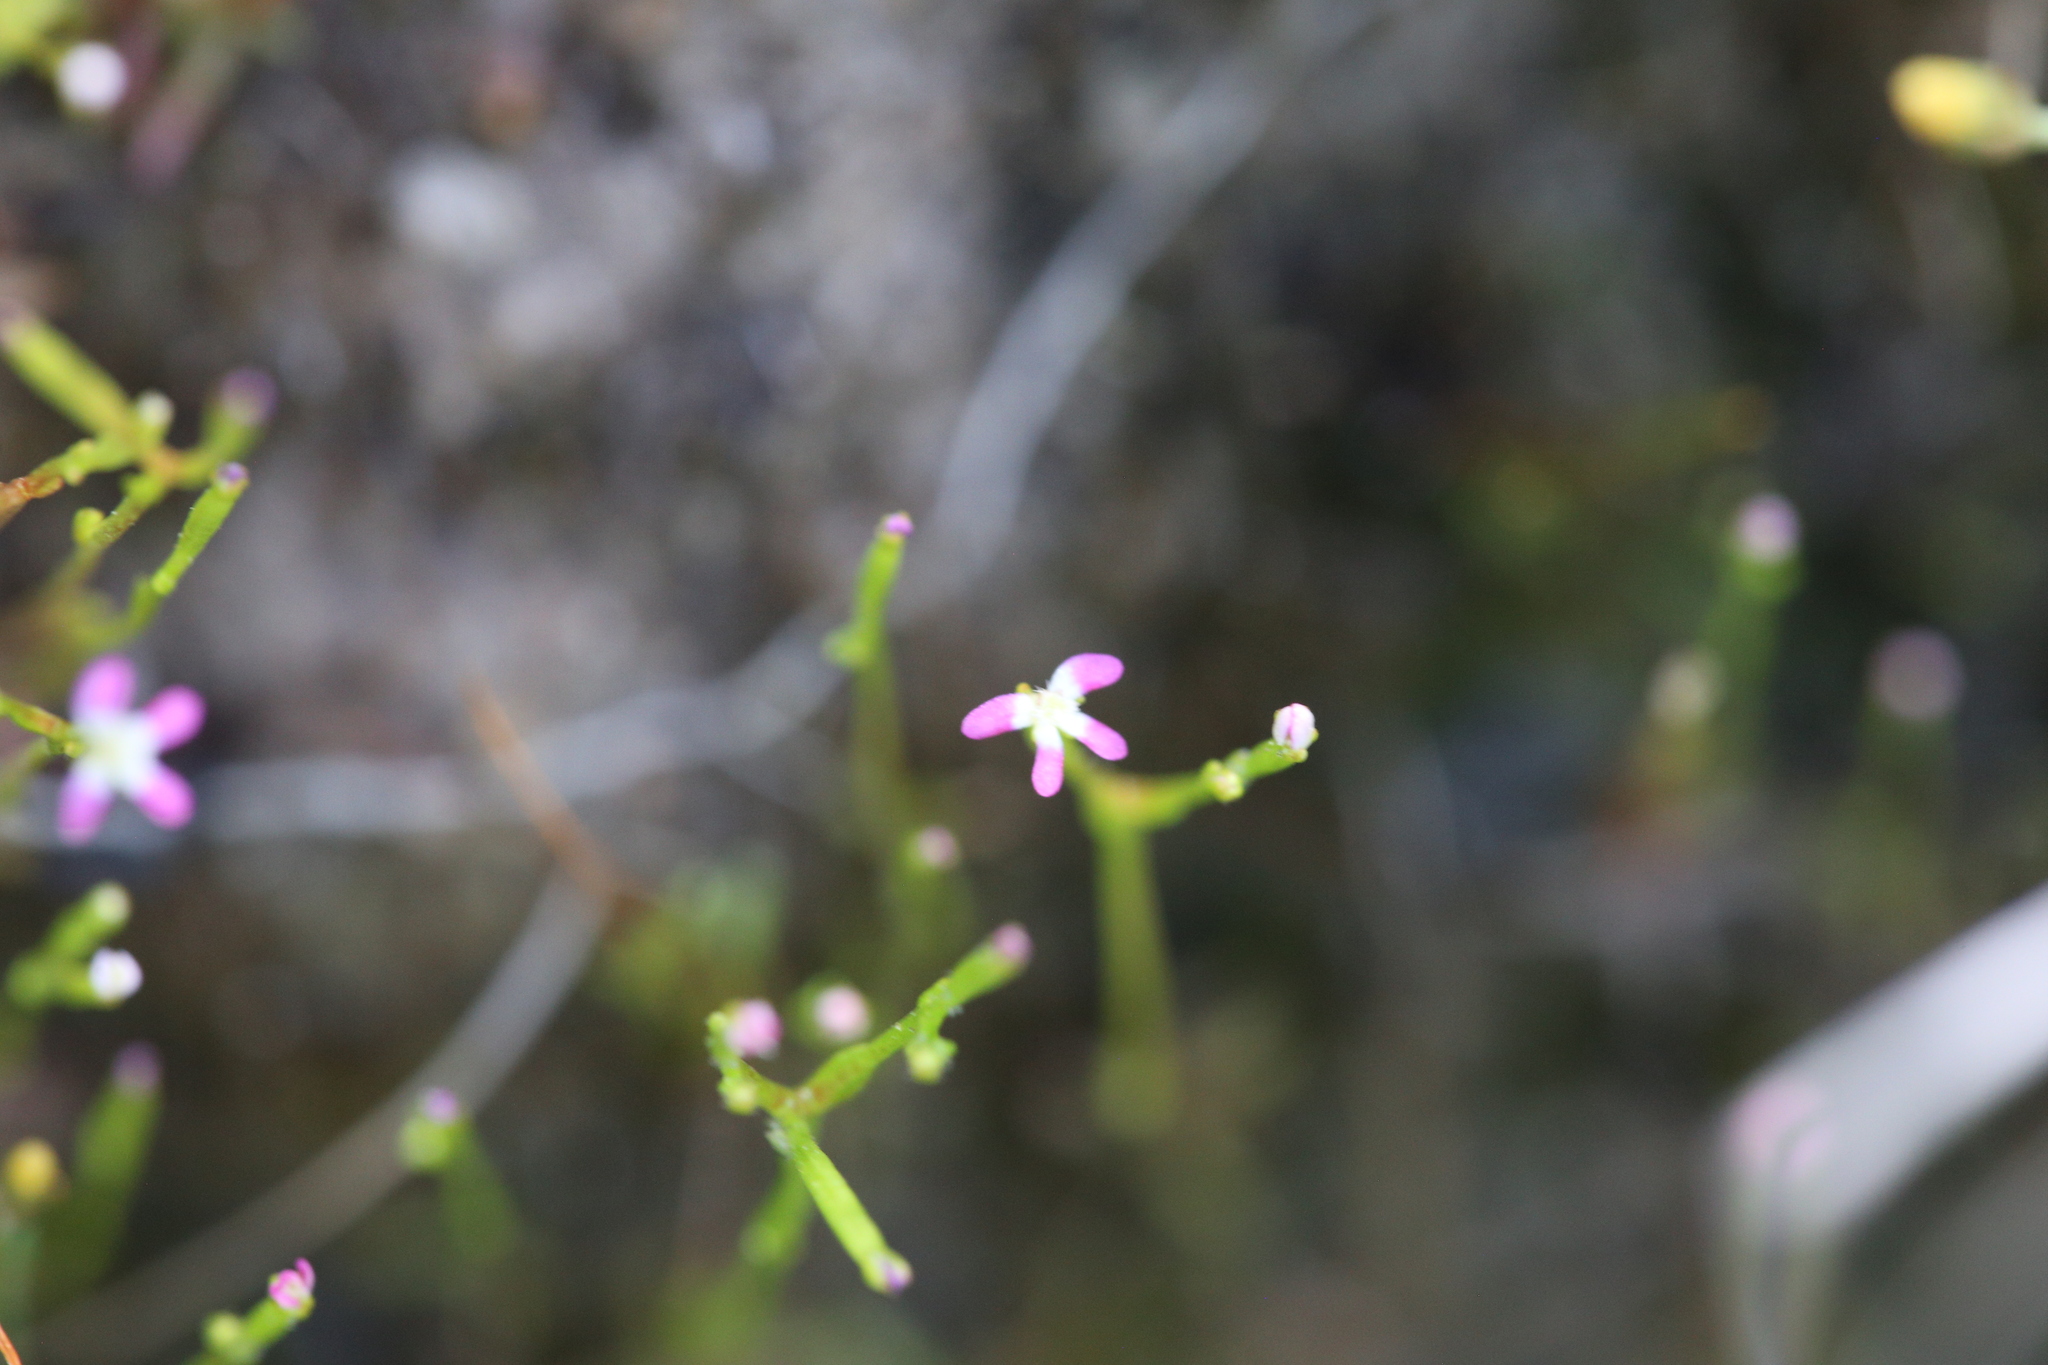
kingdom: Plantae
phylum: Tracheophyta
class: Magnoliopsida
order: Asterales
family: Stylidiaceae
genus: Stylidium
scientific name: Stylidium despectum
